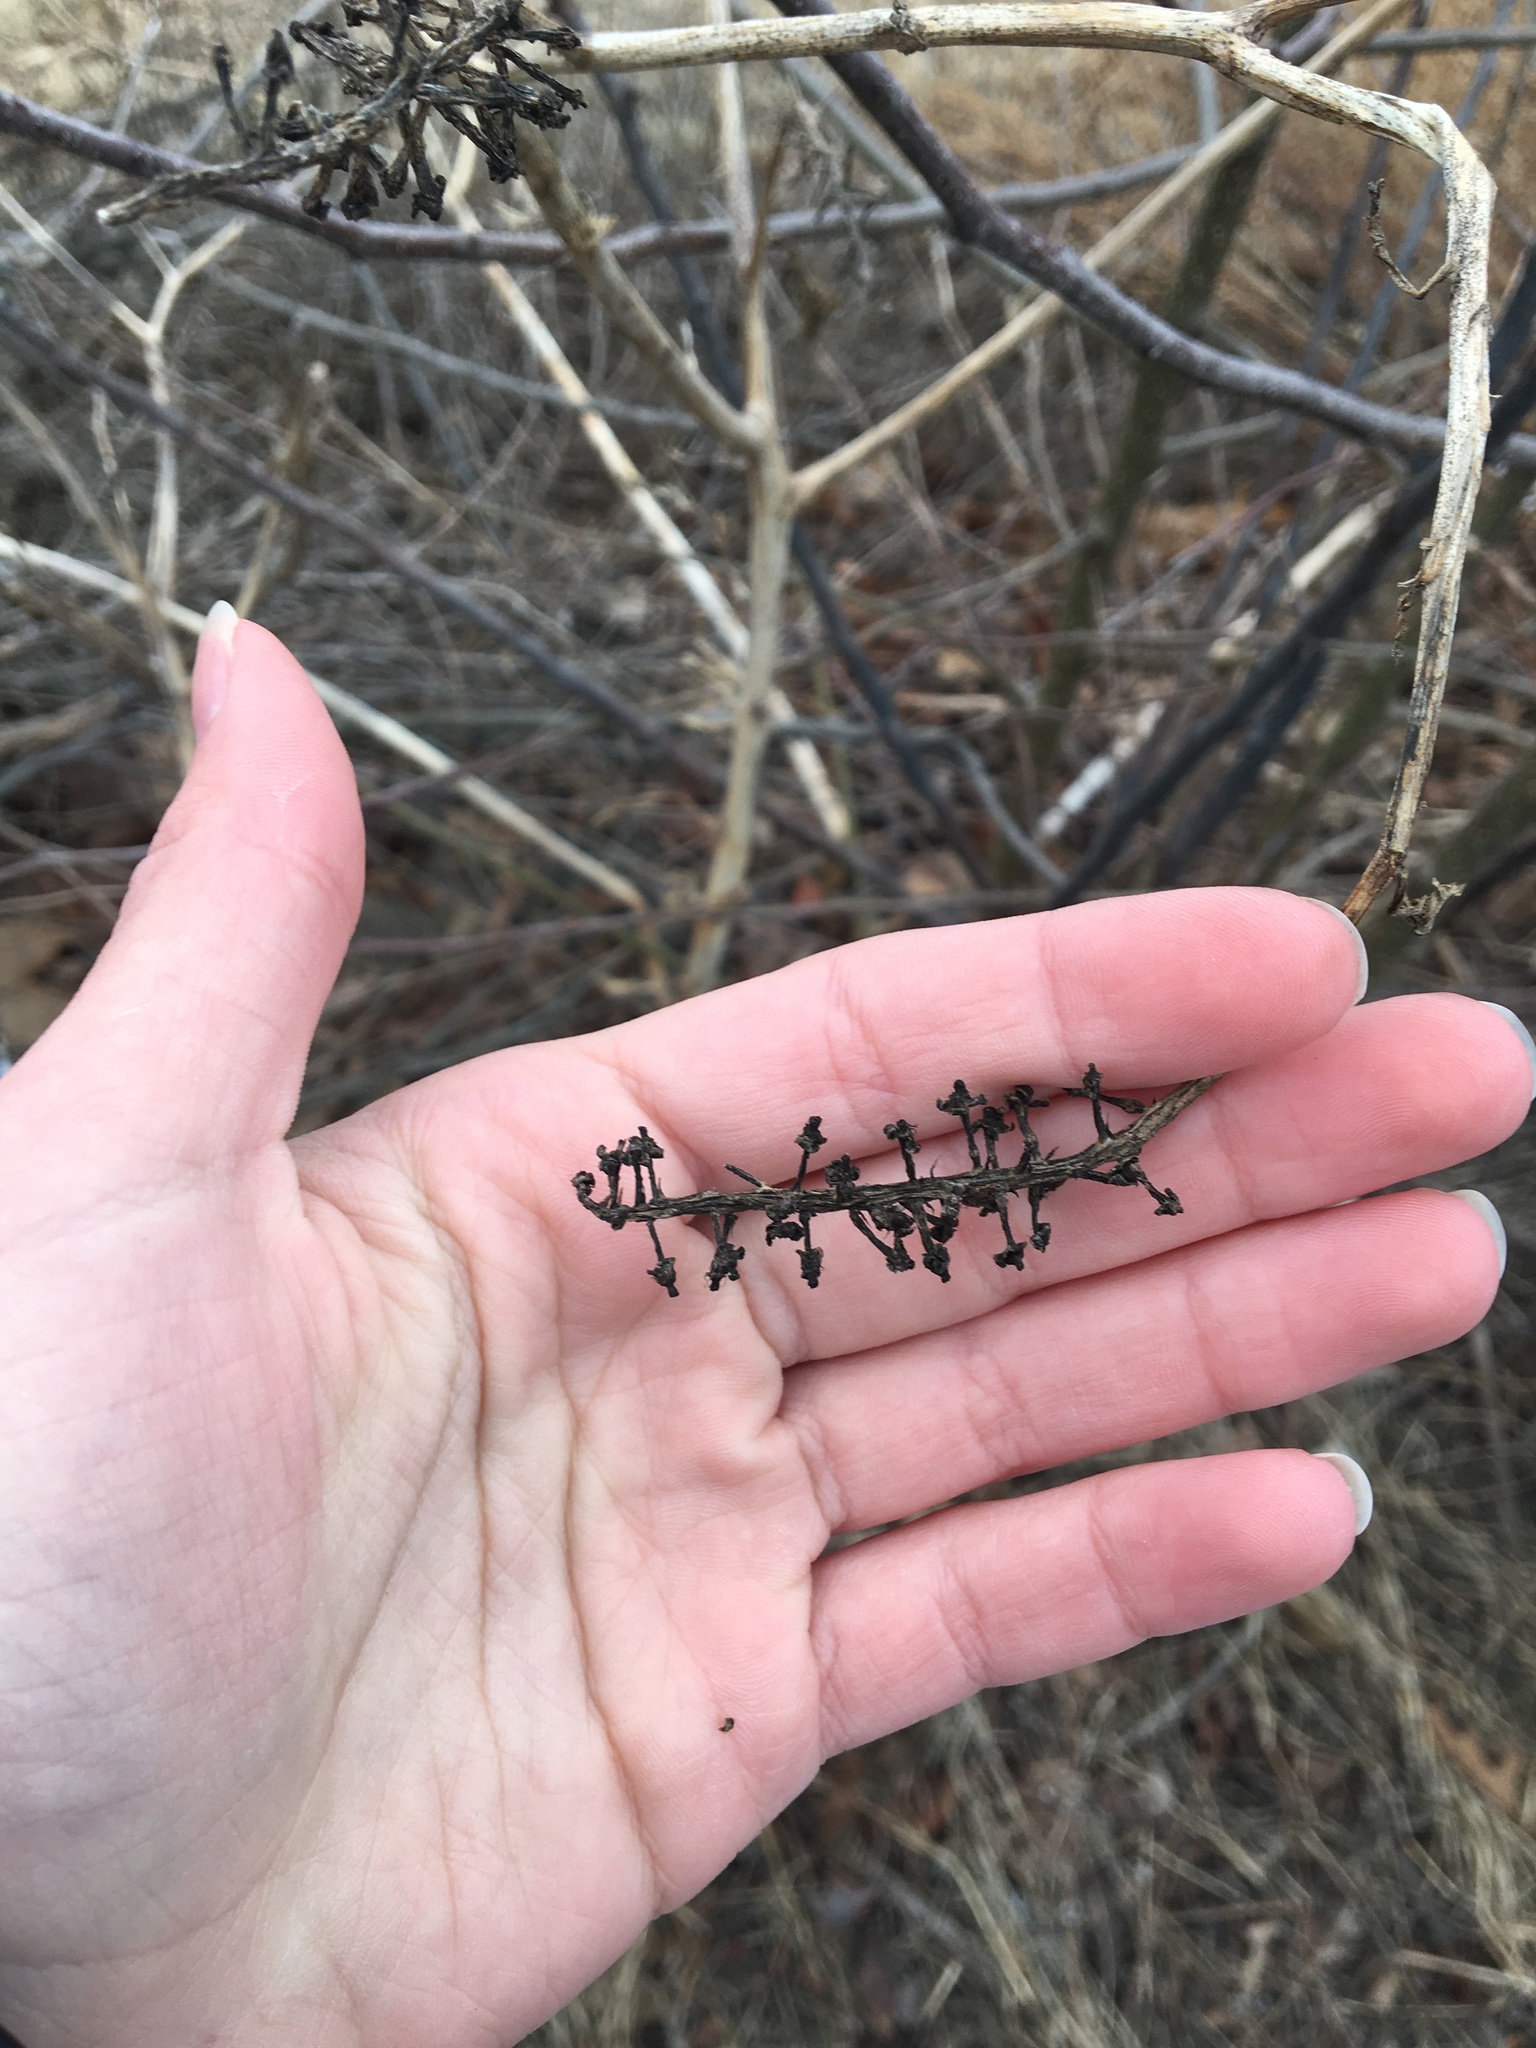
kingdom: Plantae
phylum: Tracheophyta
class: Magnoliopsida
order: Caryophyllales
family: Phytolaccaceae
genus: Phytolacca
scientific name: Phytolacca americana
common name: American pokeweed
